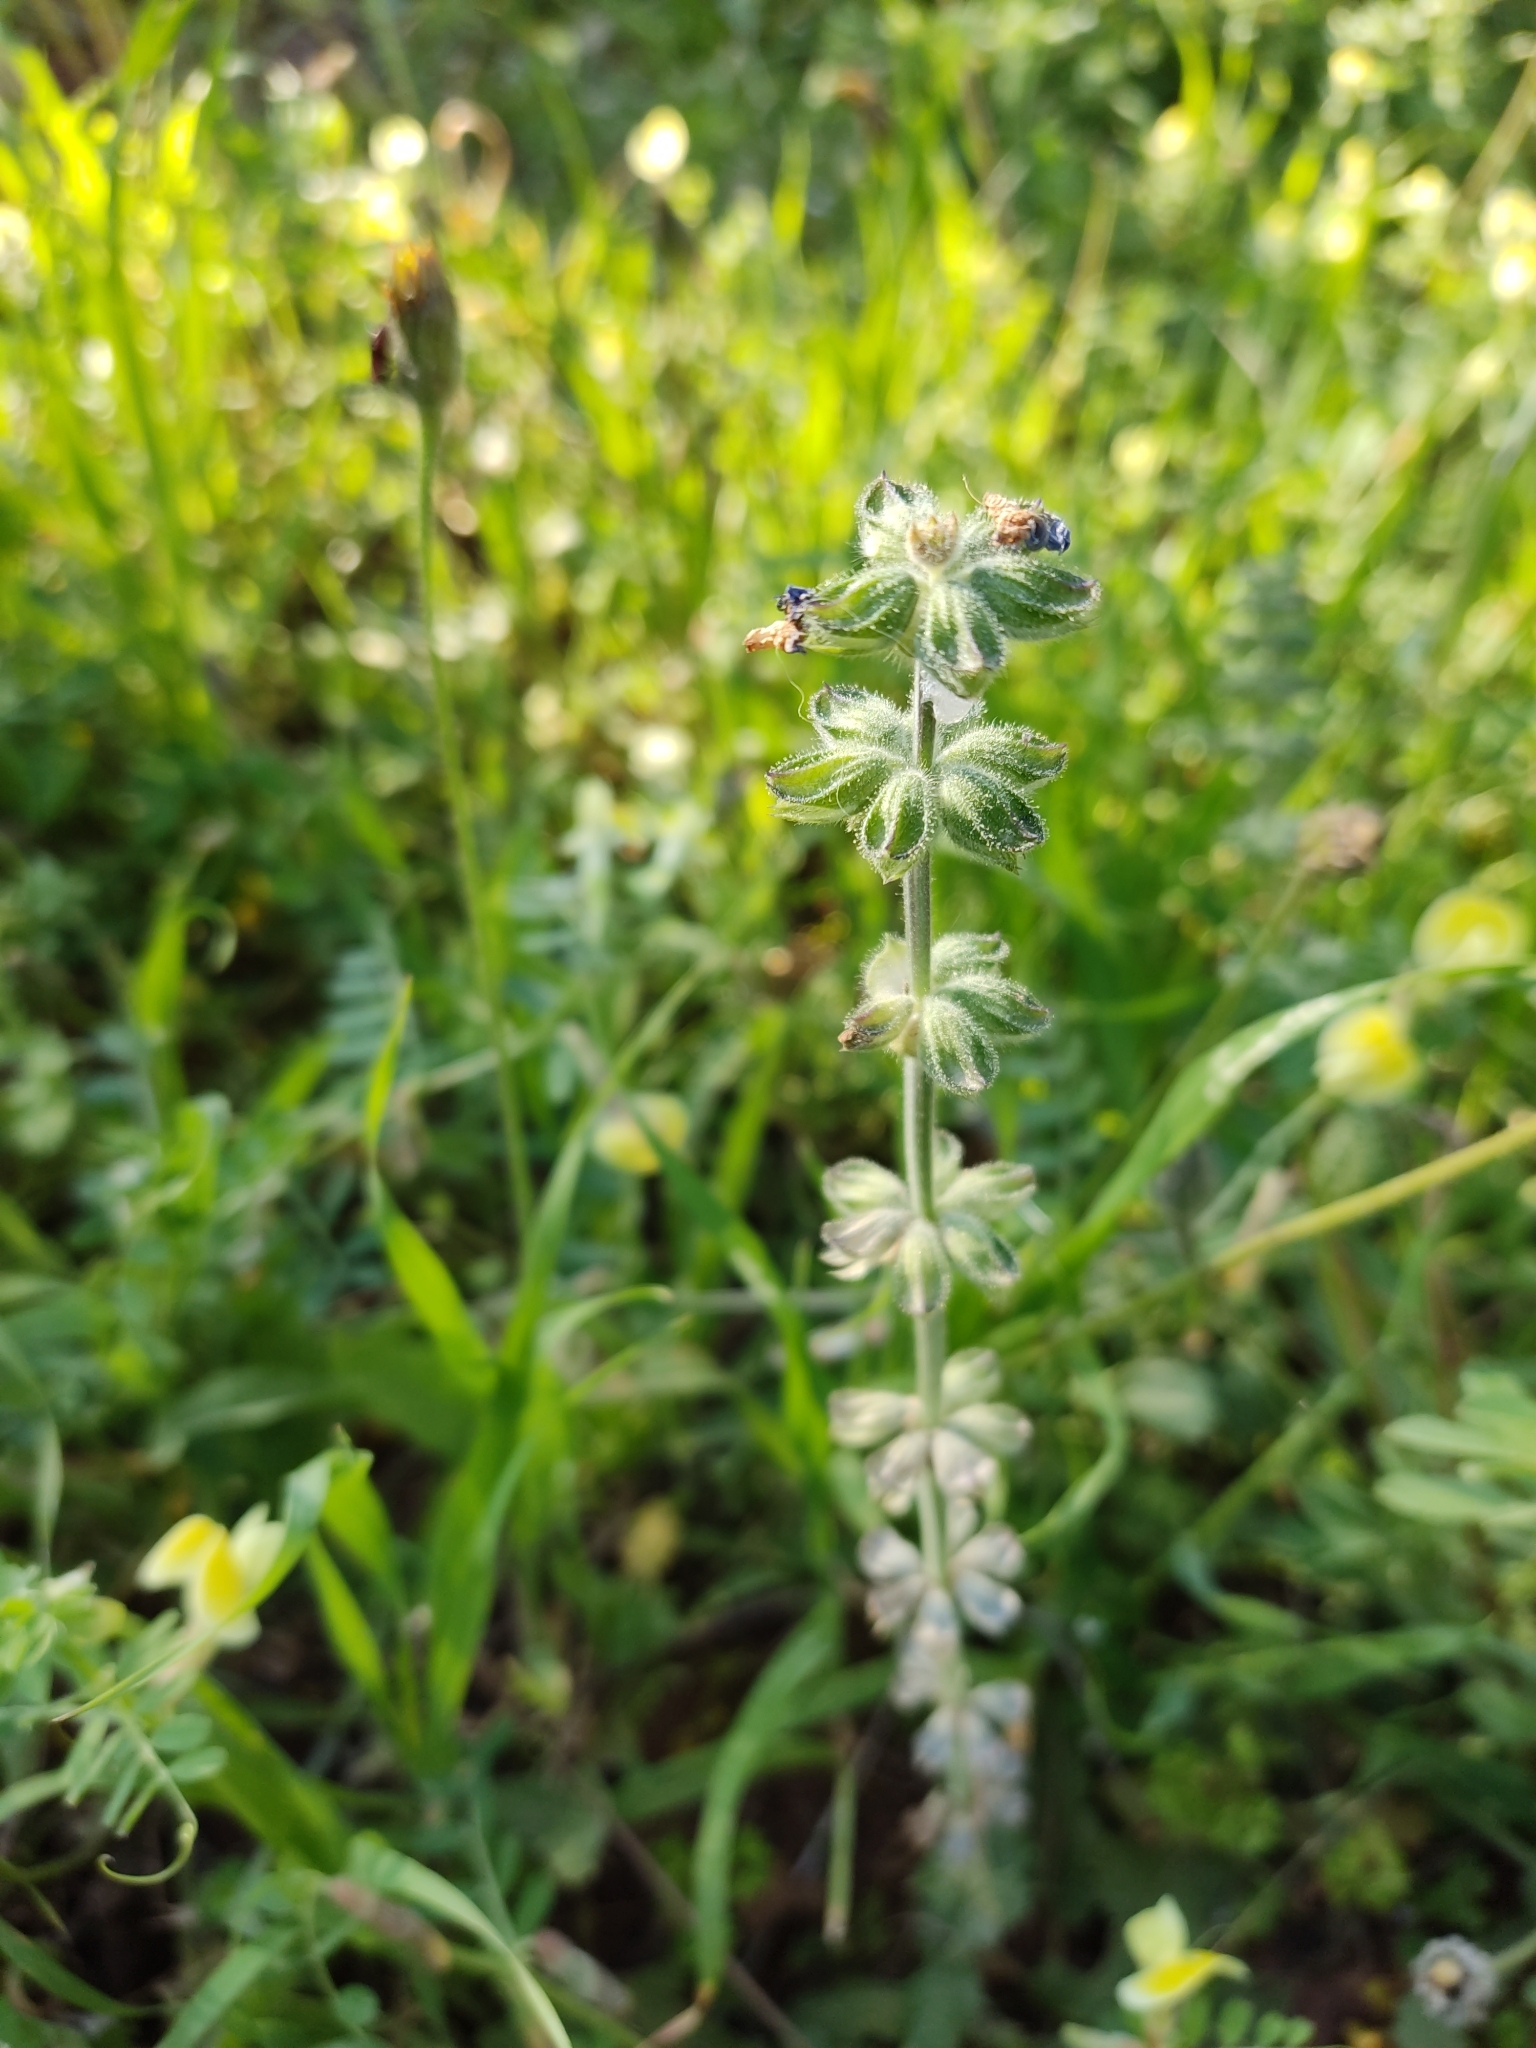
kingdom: Plantae
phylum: Tracheophyta
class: Magnoliopsida
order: Lamiales
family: Lamiaceae
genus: Salvia
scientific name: Salvia verbenaca
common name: Wild clary
